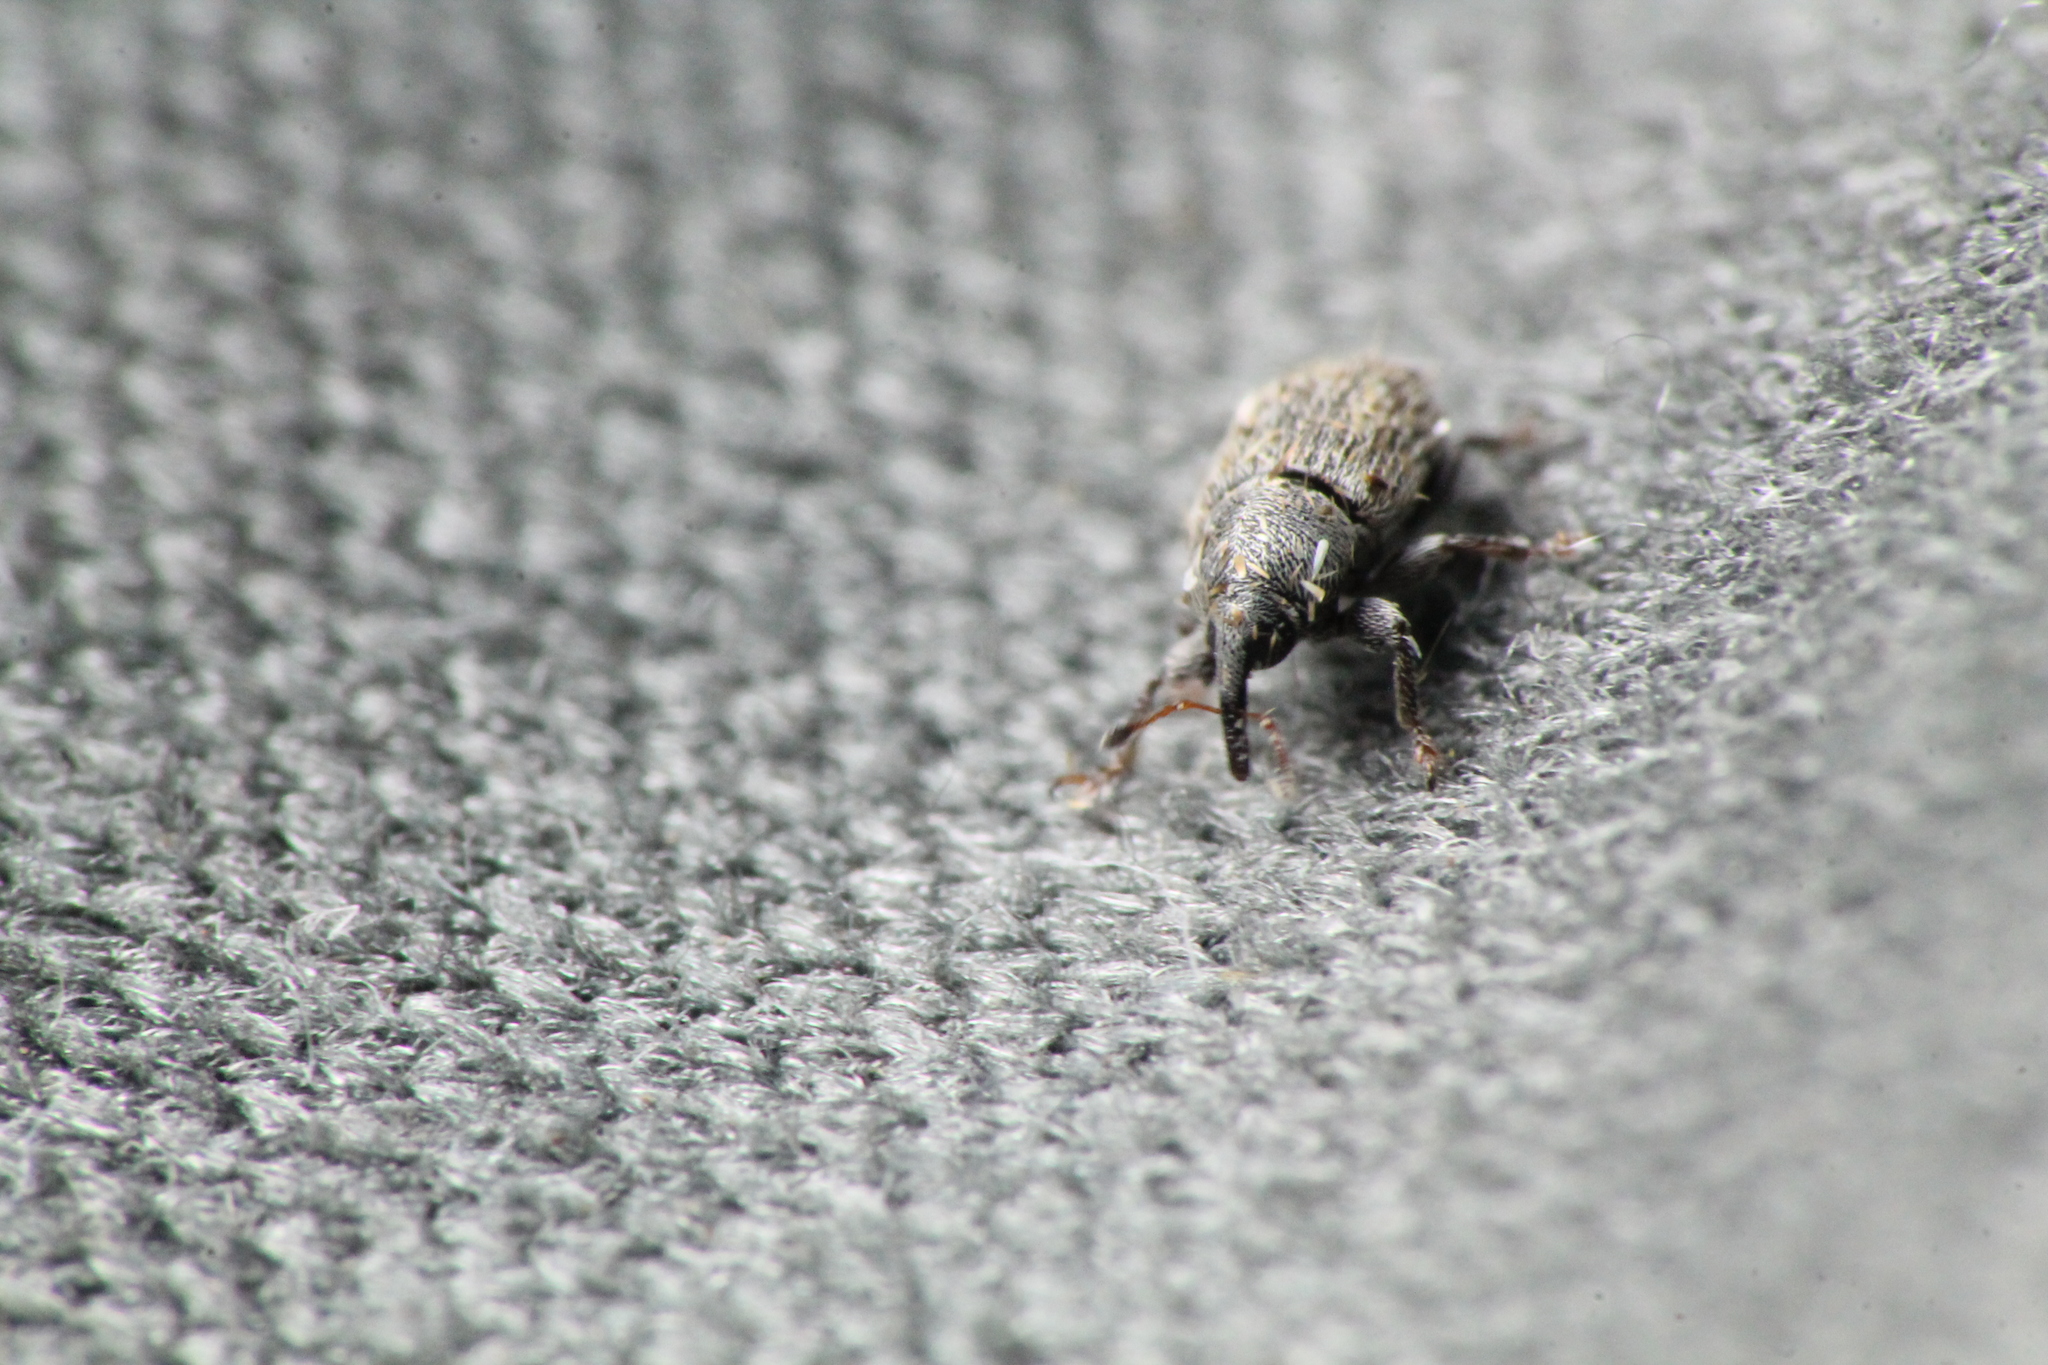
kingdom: Animalia
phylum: Arthropoda
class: Insecta
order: Coleoptera
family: Curculionidae
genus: Mecinus
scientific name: Mecinus pascuorum
